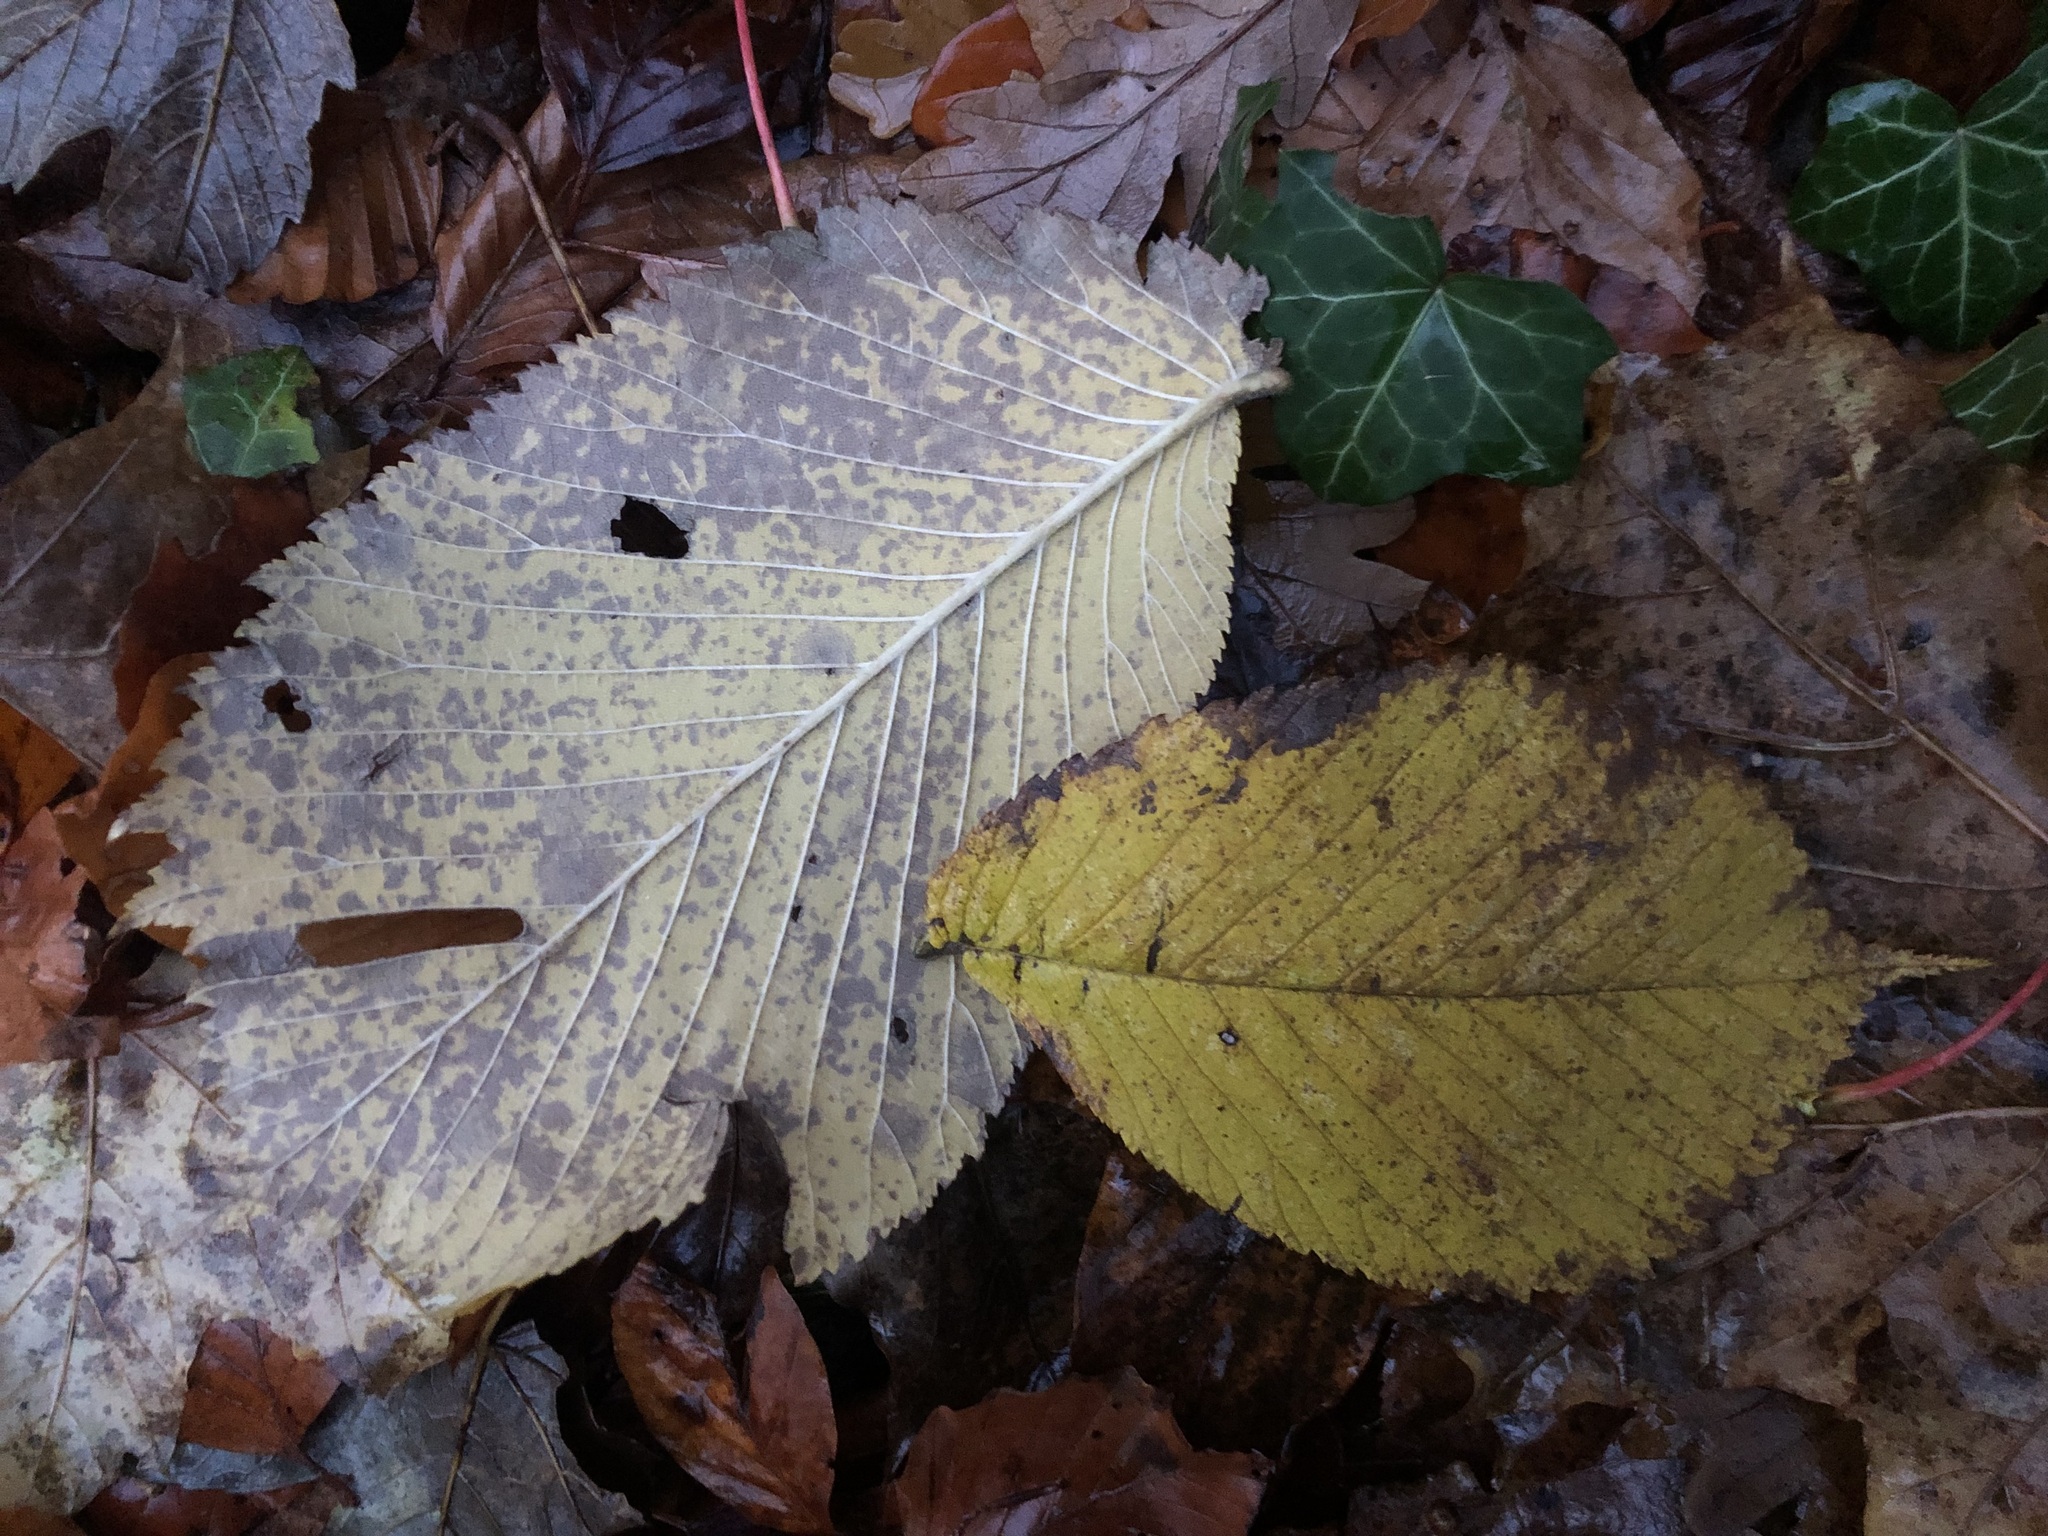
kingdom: Plantae
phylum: Tracheophyta
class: Magnoliopsida
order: Rosales
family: Ulmaceae
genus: Ulmus
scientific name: Ulmus glabra
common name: Wych elm
